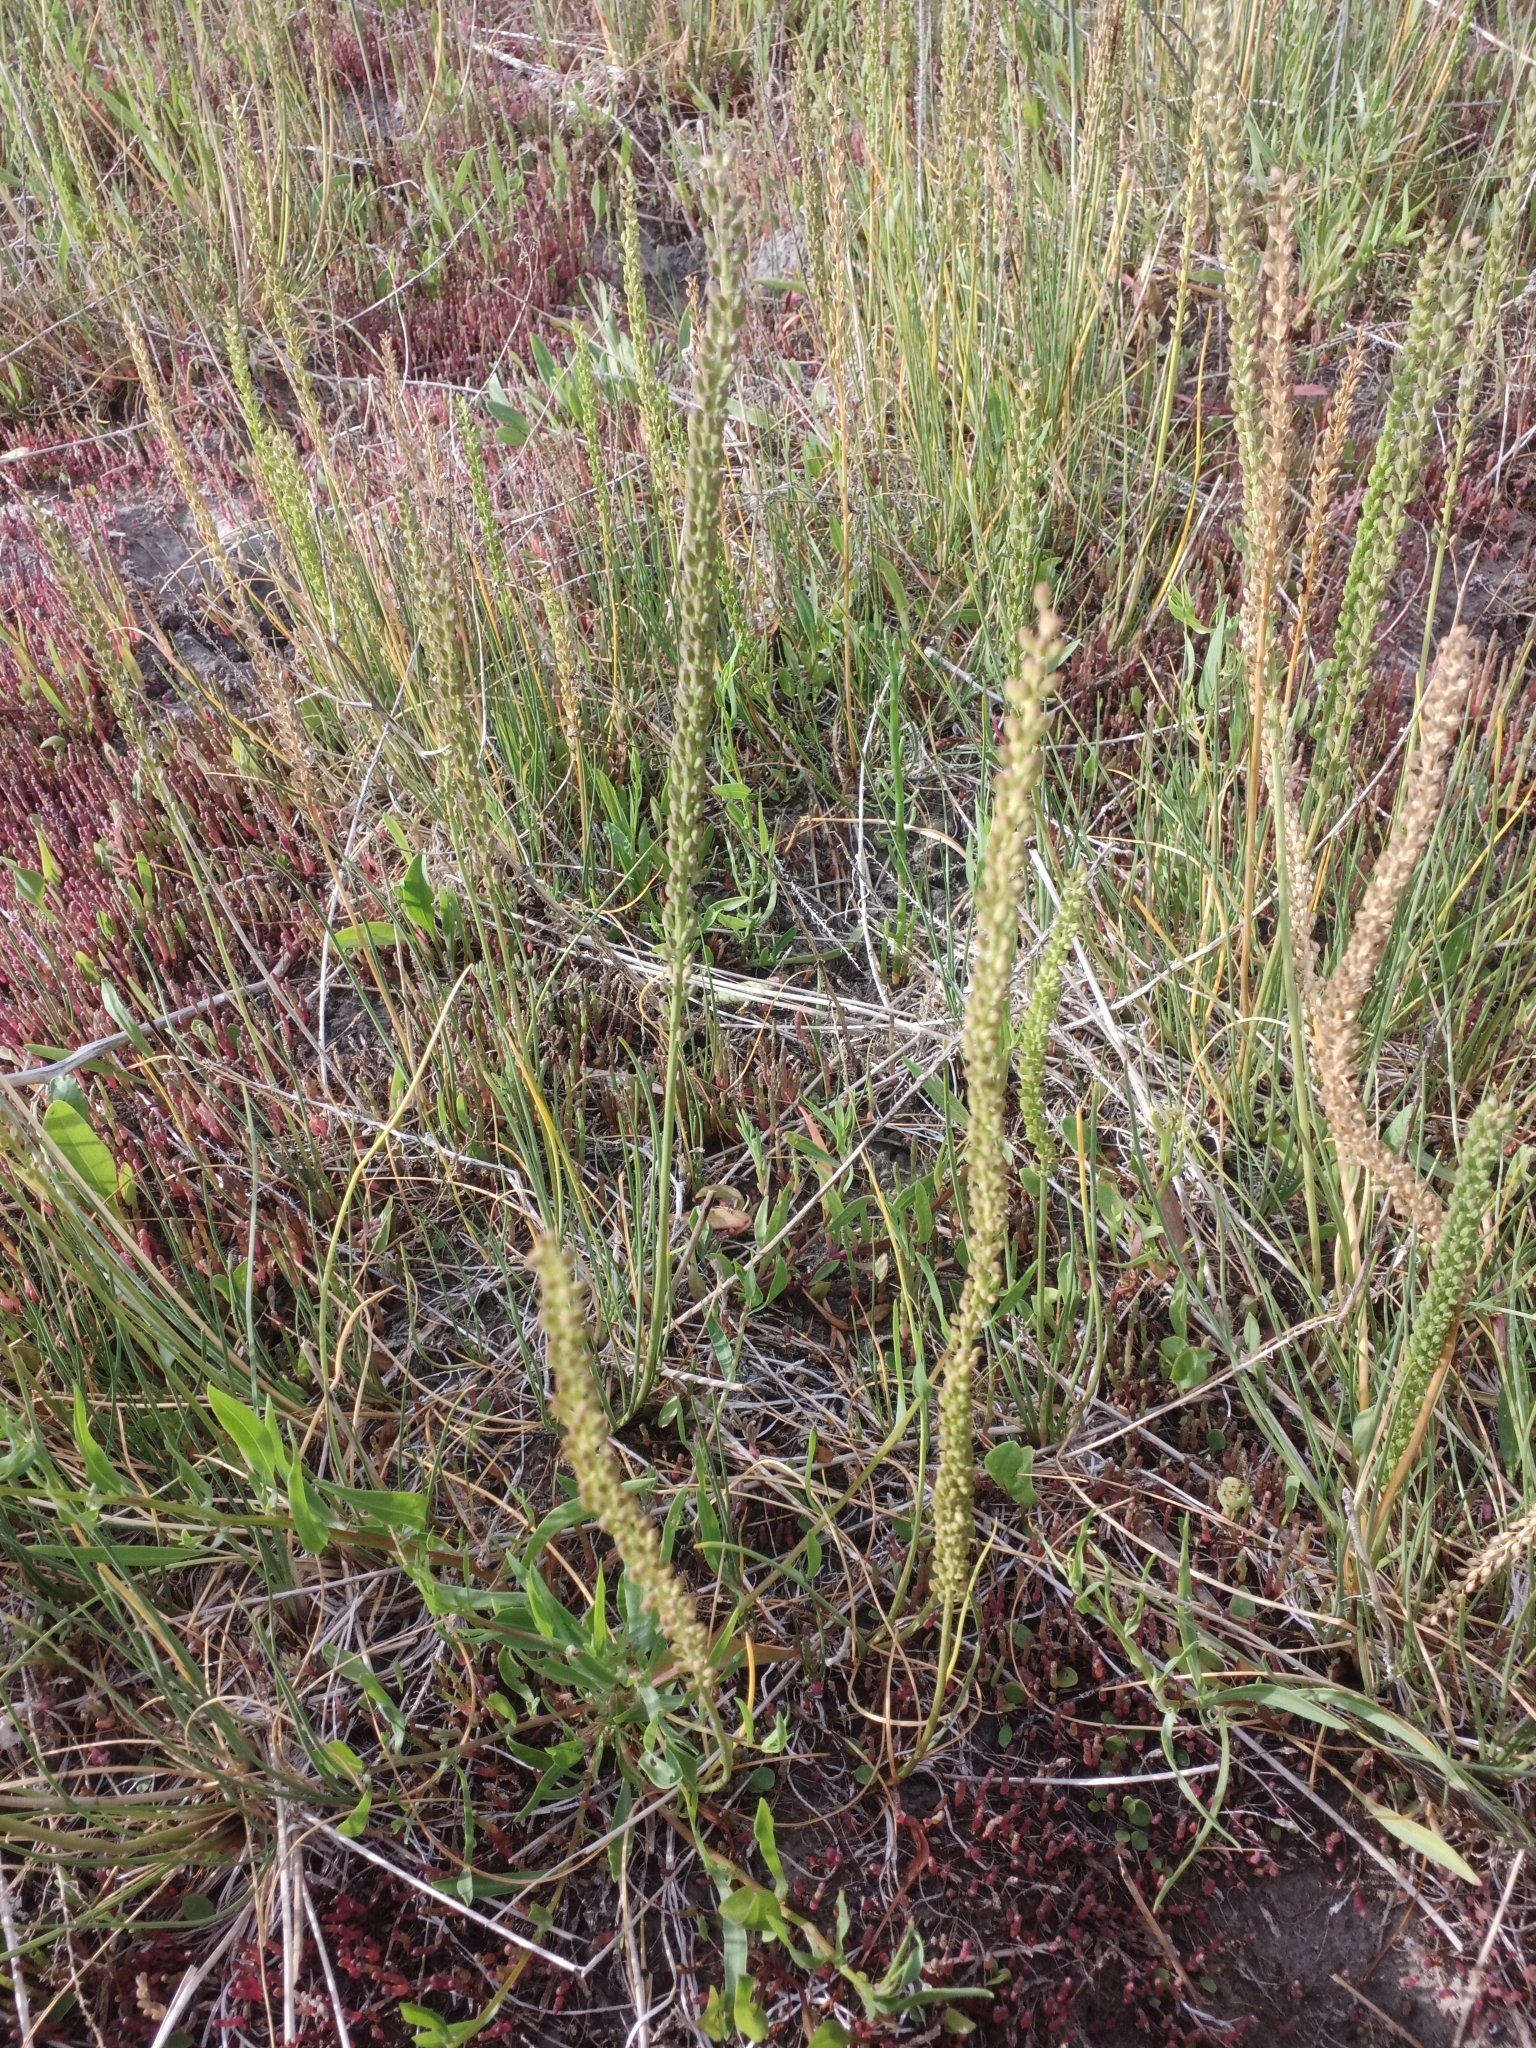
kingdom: Plantae
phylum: Tracheophyta
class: Liliopsida
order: Alismatales
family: Juncaginaceae
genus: Triglochin
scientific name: Triglochin maritima
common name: Sea arrowgrass
